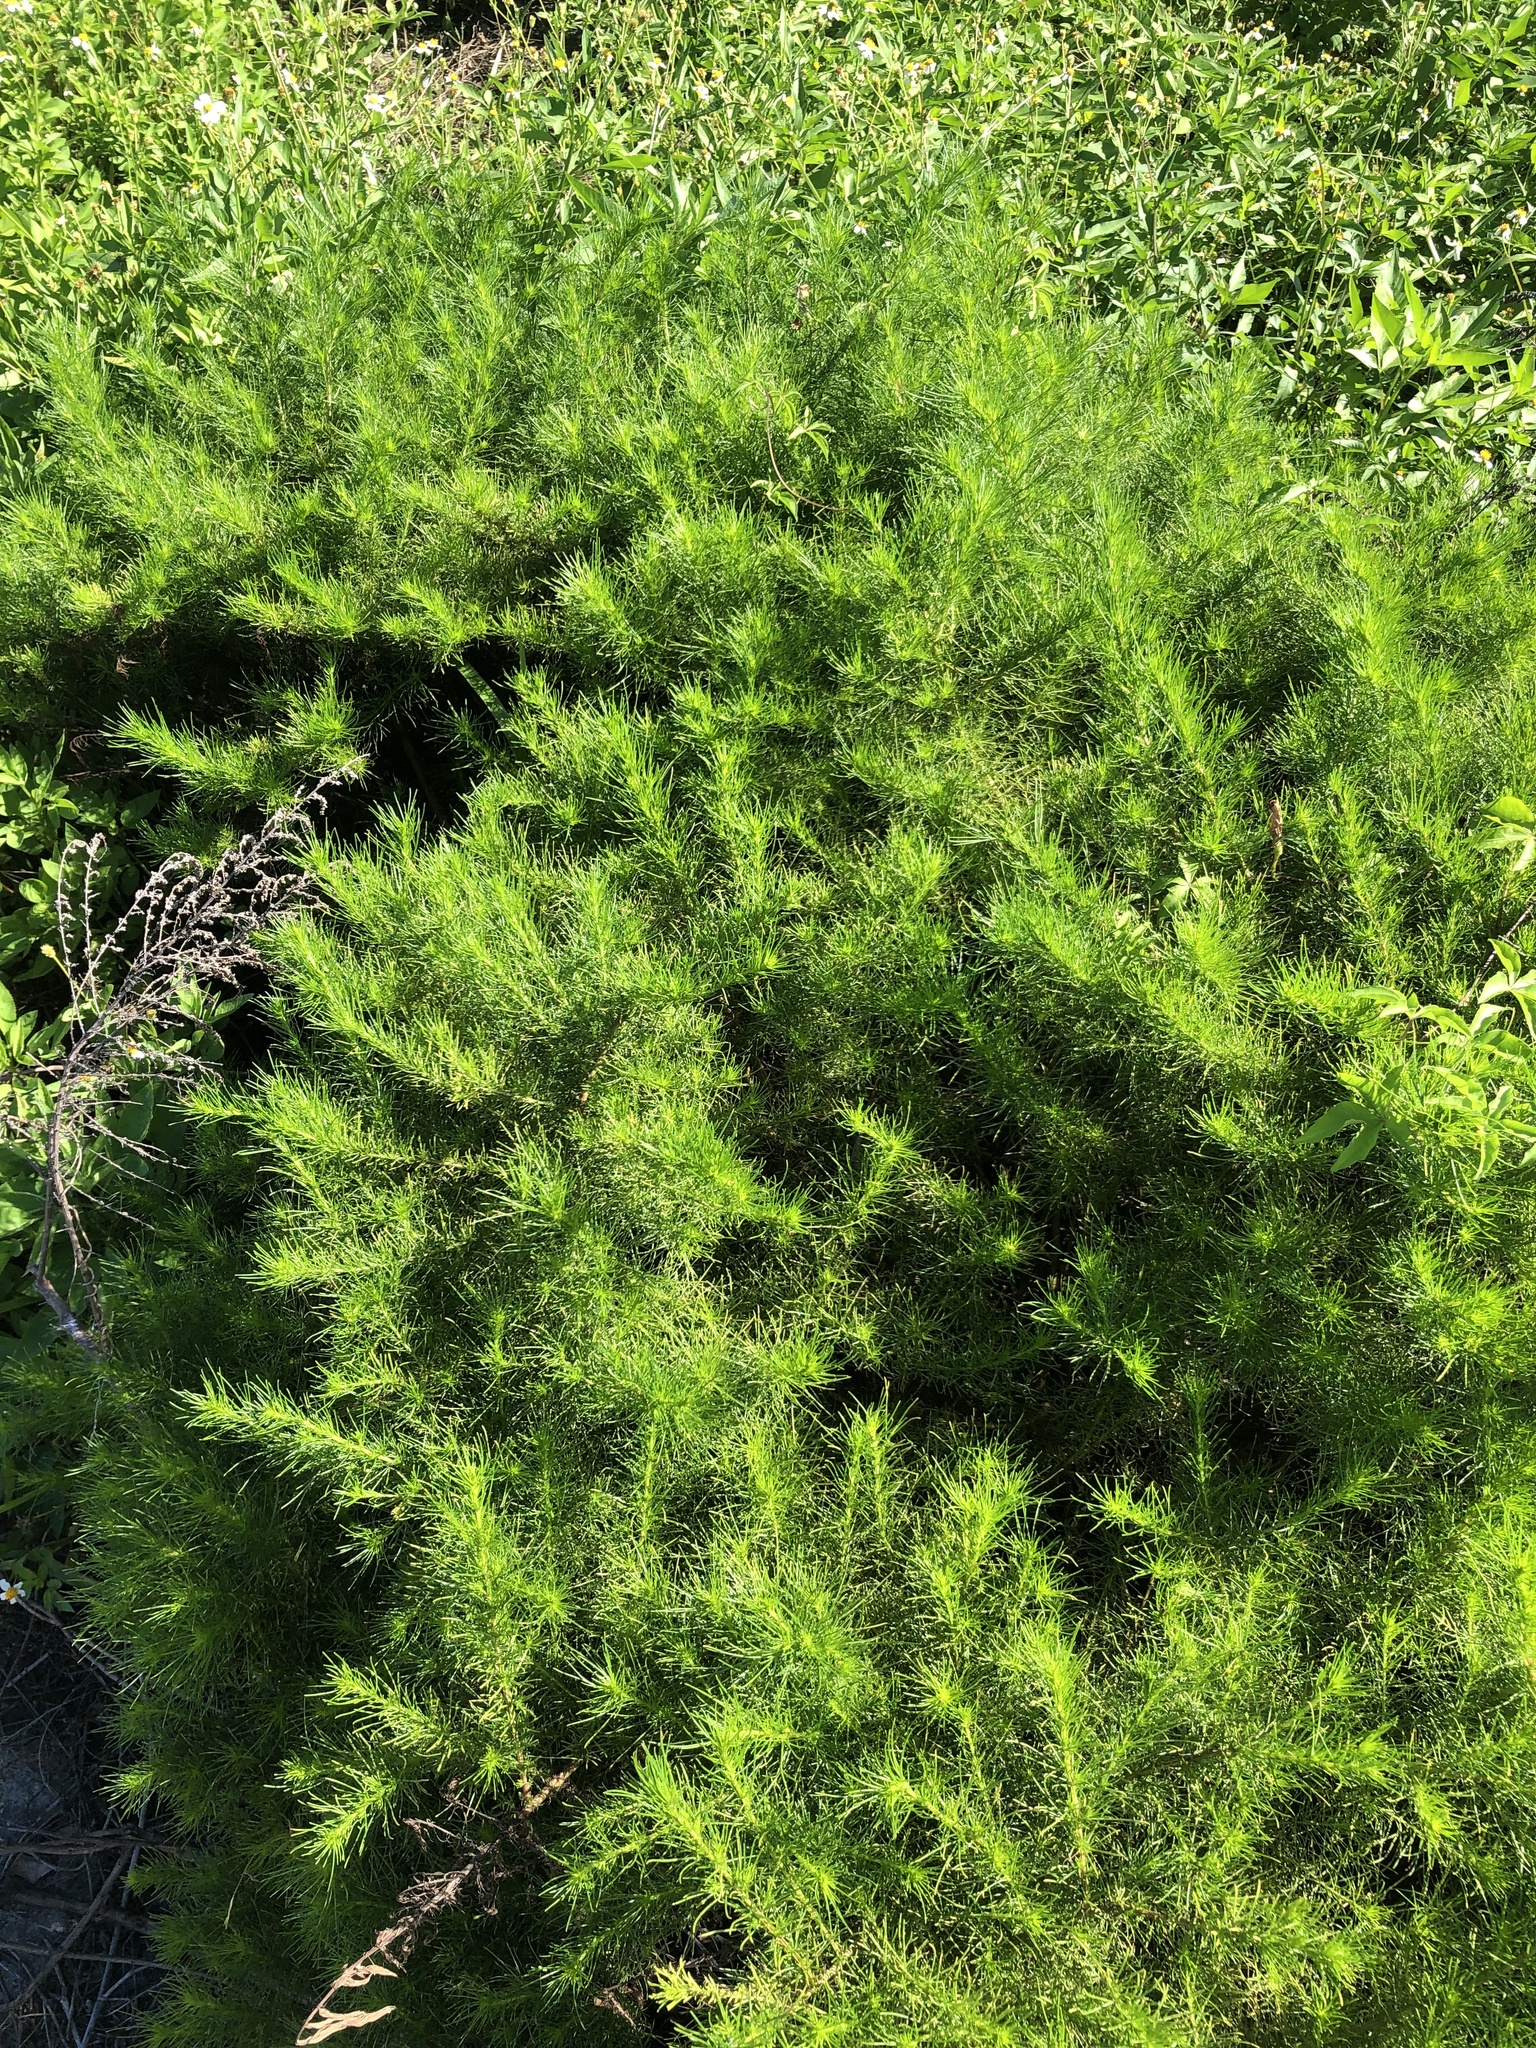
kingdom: Plantae
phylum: Tracheophyta
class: Magnoliopsida
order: Asterales
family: Asteraceae
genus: Artemisia
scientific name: Artemisia capillaris
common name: Yin-chen wormwood
